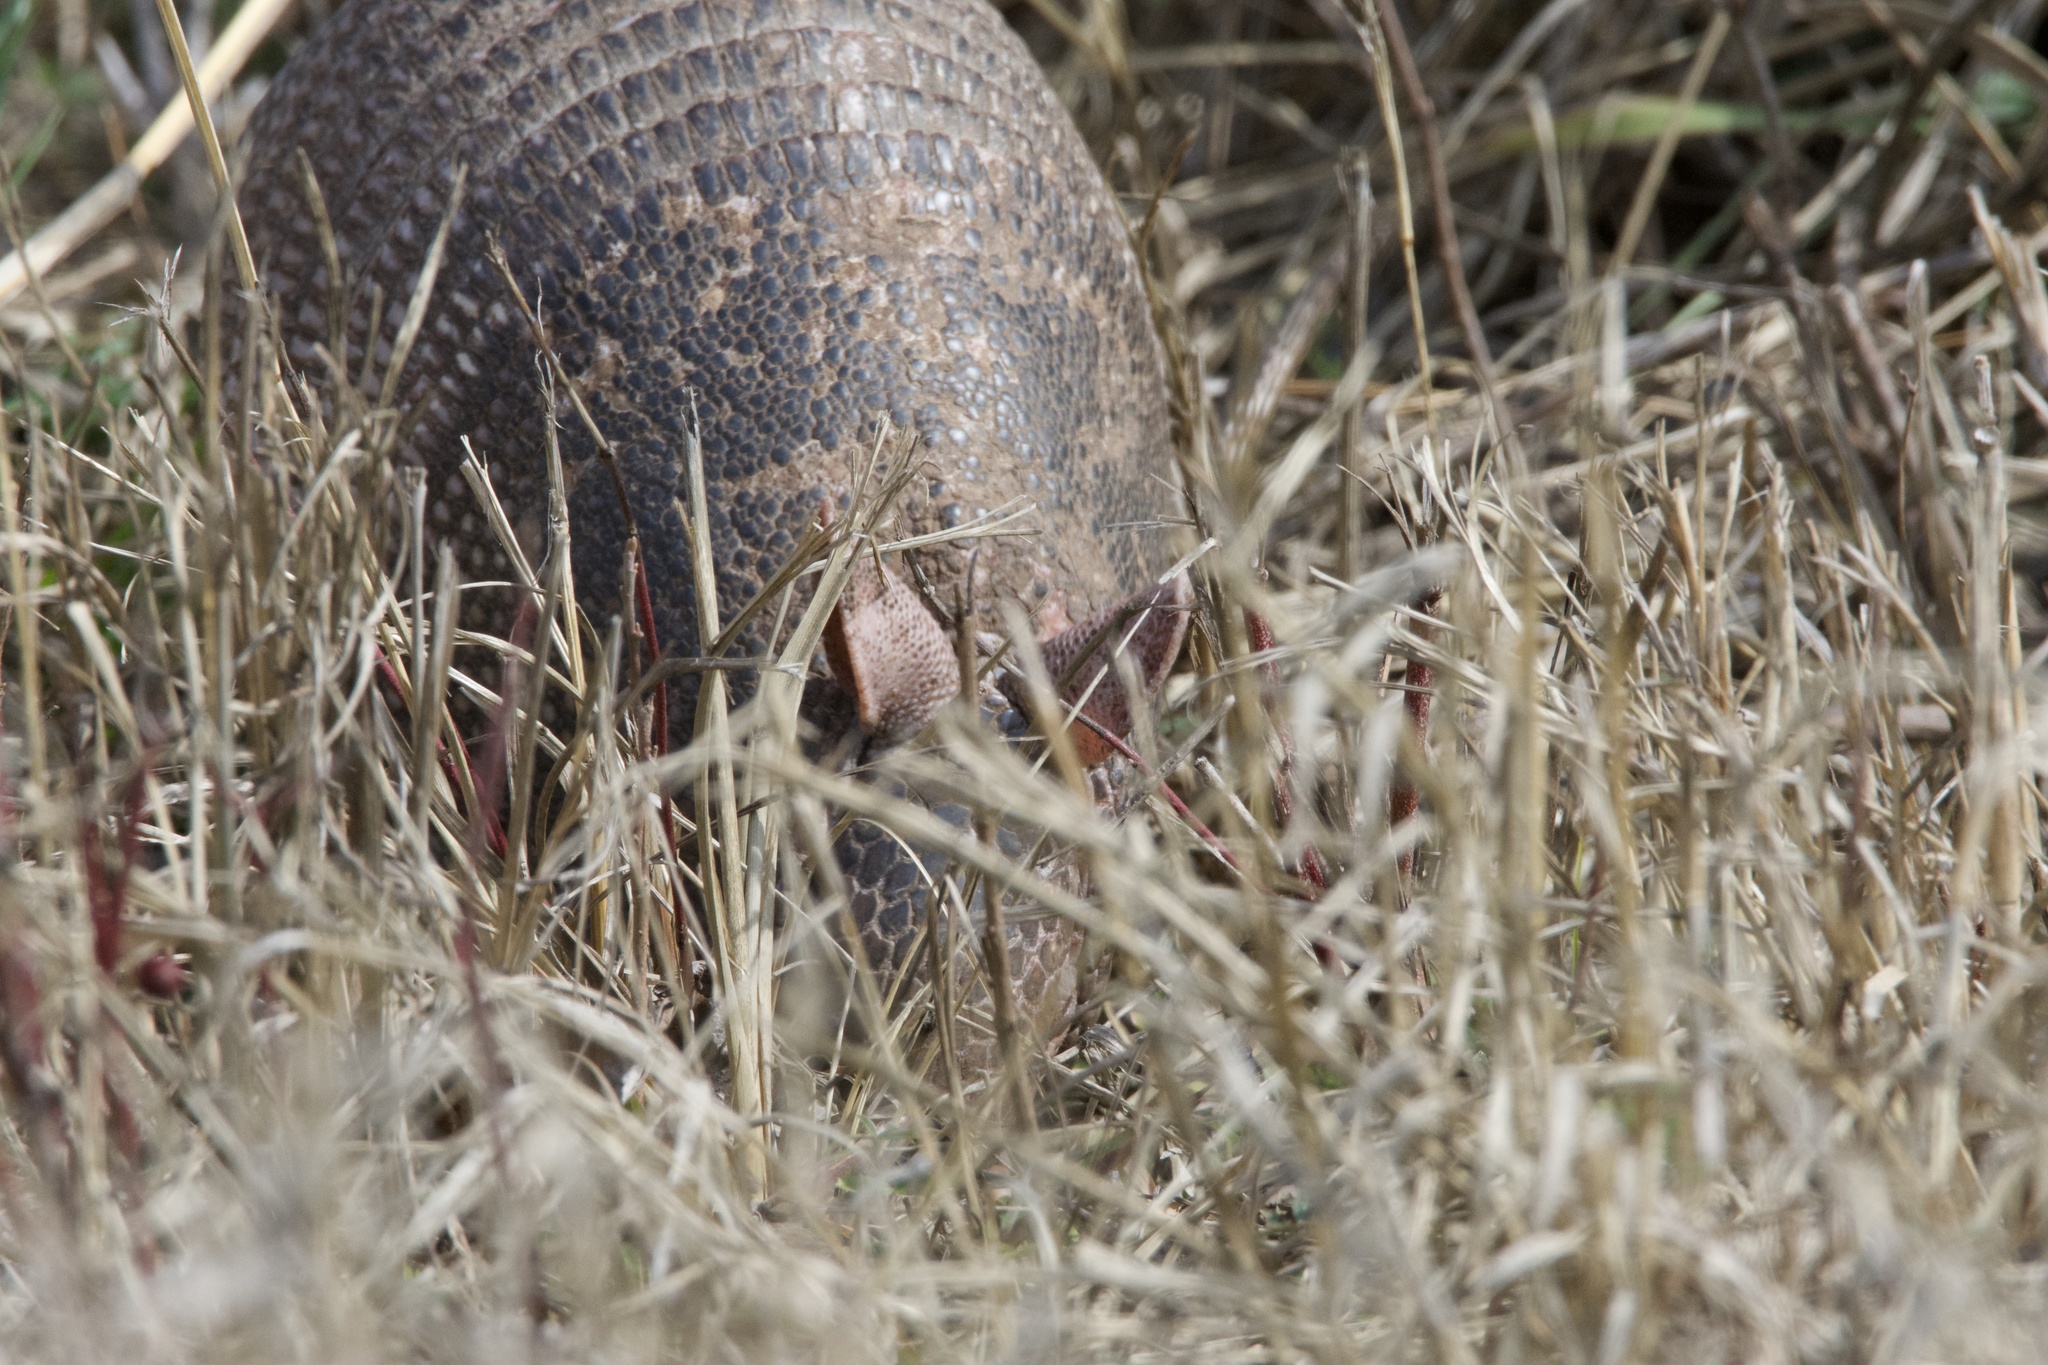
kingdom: Animalia
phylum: Chordata
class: Mammalia
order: Cingulata
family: Dasypodidae
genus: Dasypus
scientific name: Dasypus novemcinctus
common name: Nine-banded armadillo
